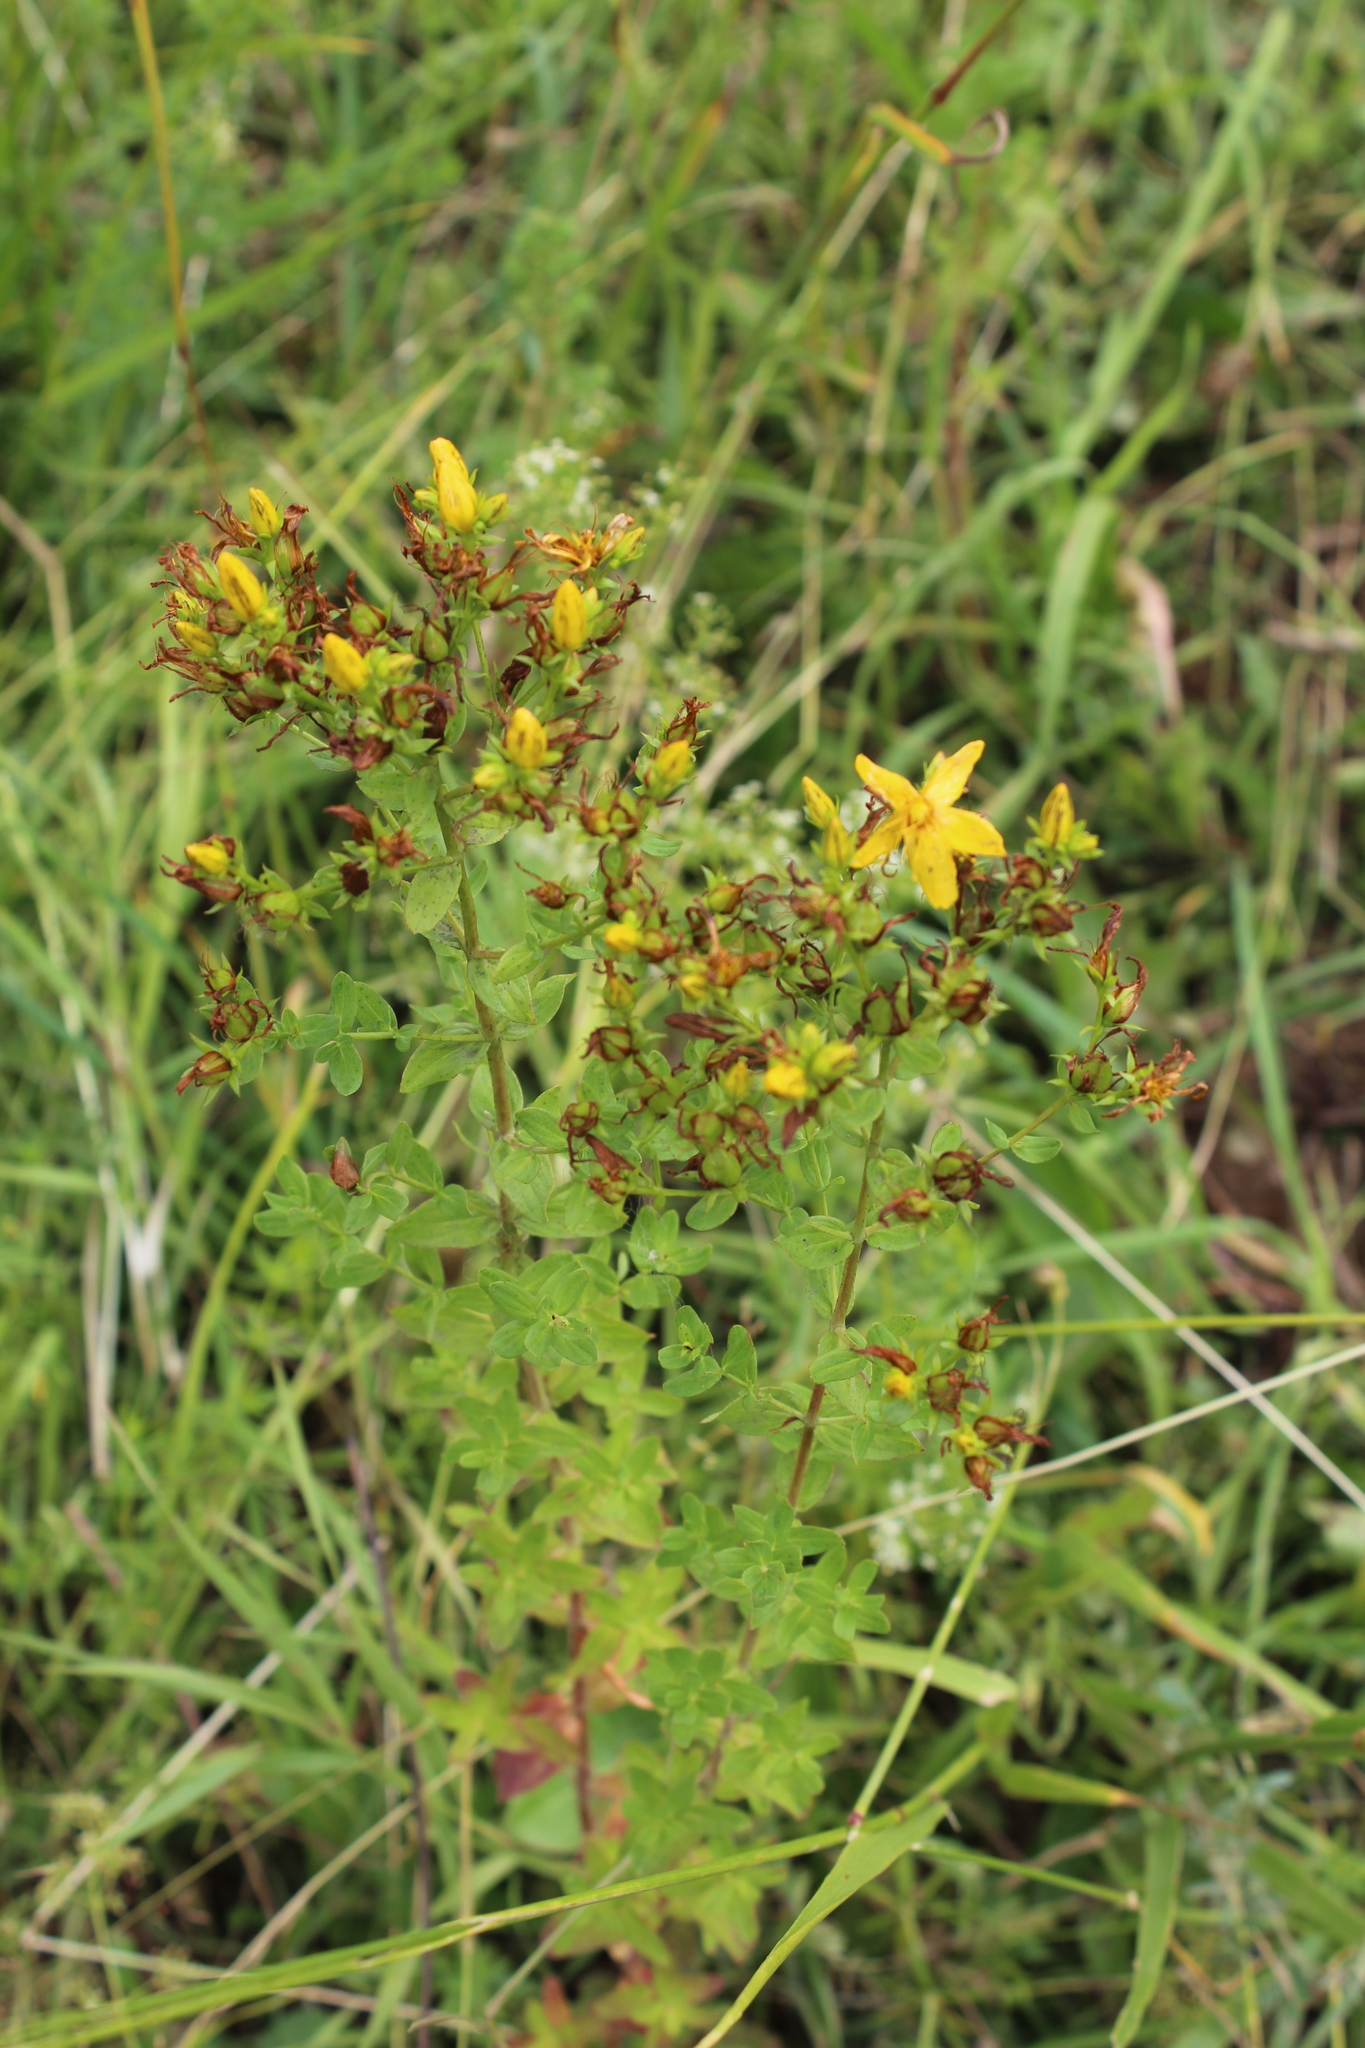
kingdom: Plantae
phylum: Tracheophyta
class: Magnoliopsida
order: Malpighiales
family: Hypericaceae
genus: Hypericum
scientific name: Hypericum perforatum
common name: Common st. johnswort
